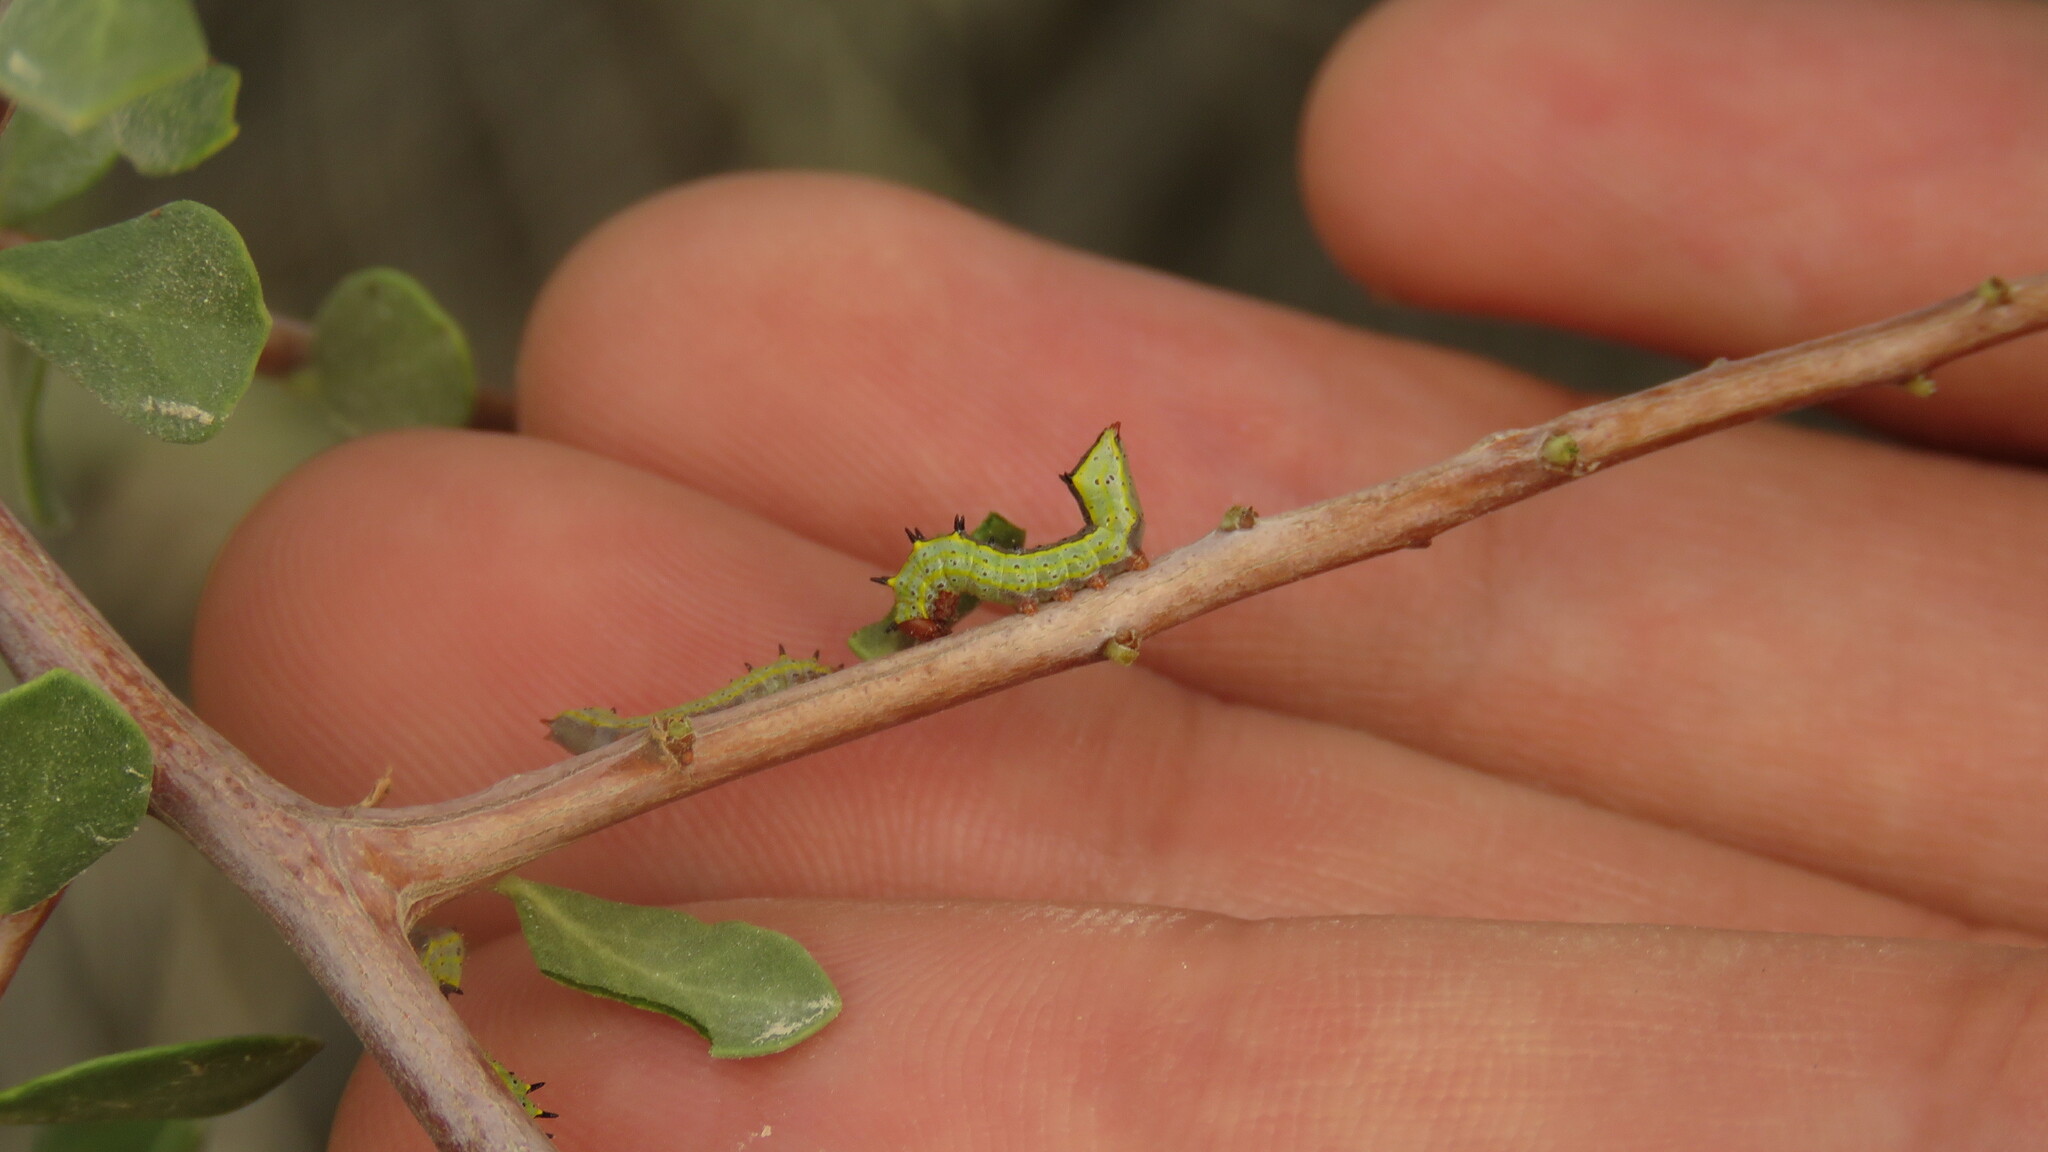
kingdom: Animalia
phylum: Arthropoda
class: Insecta
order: Lepidoptera
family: Notodontidae
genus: Tecmessa
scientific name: Tecmessa
